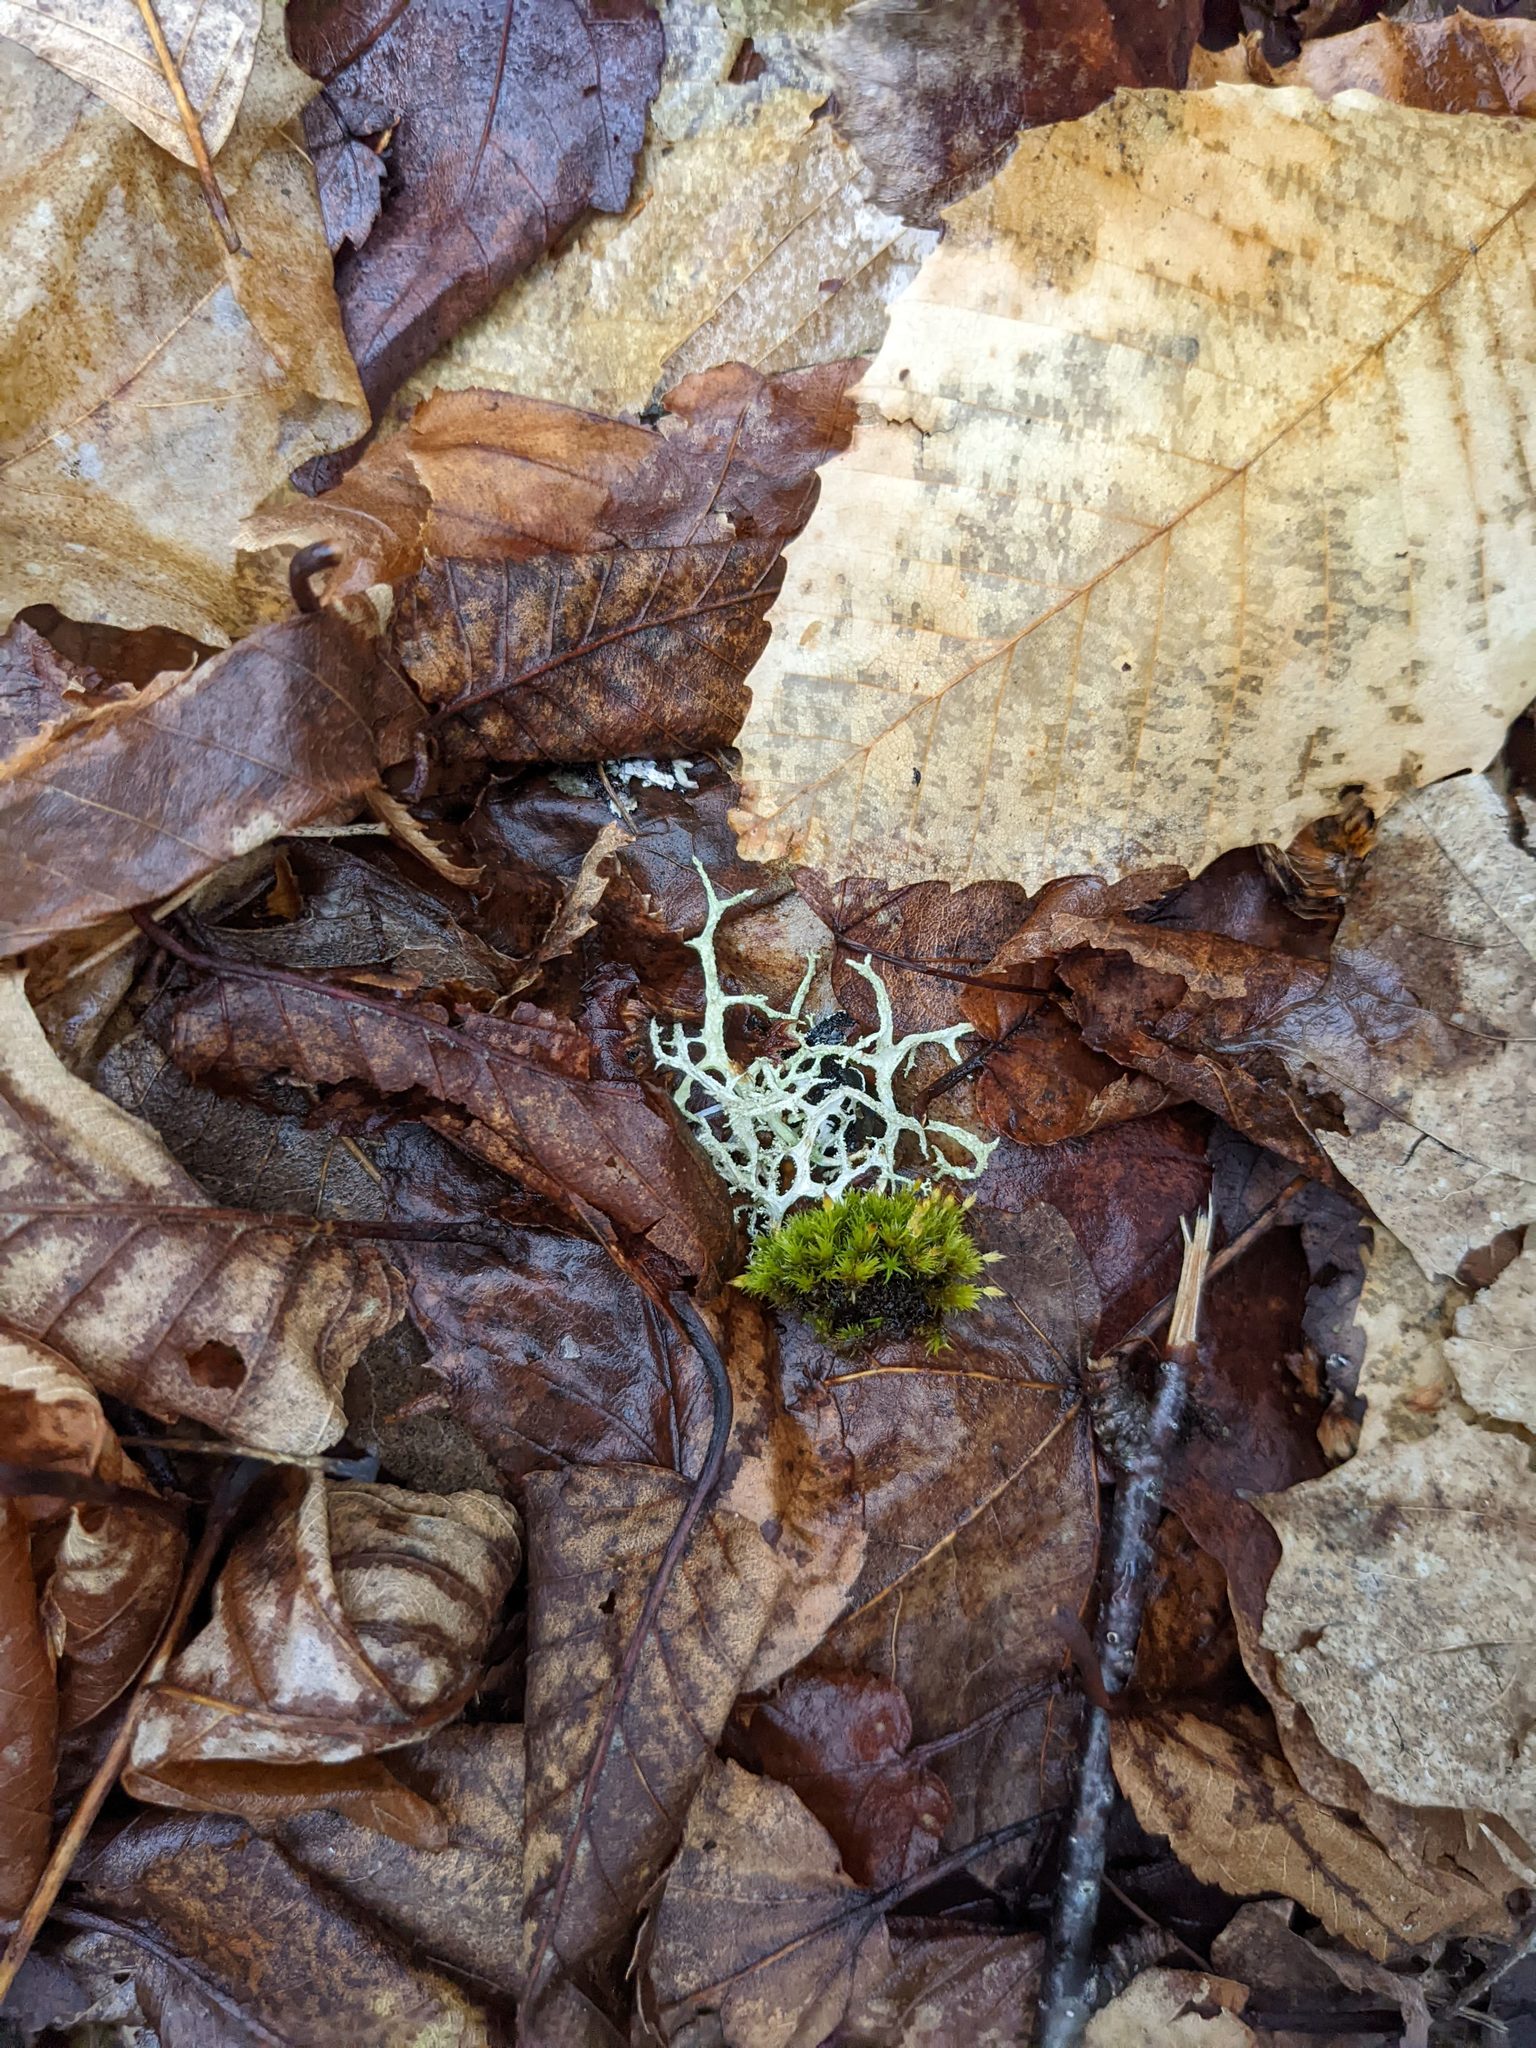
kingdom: Plantae
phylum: Bryophyta
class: Bryopsida
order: Orthotrichales
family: Orthotrichaceae
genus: Ulota
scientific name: Ulota crispa
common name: Crisped pincushion moss
